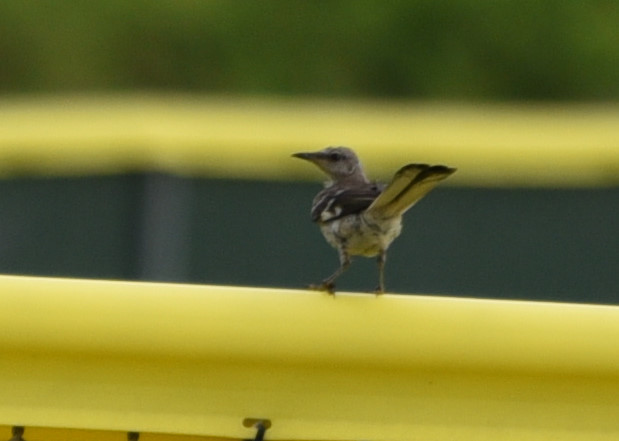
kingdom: Animalia
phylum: Chordata
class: Aves
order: Passeriformes
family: Mimidae
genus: Mimus
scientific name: Mimus polyglottos
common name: Northern mockingbird
